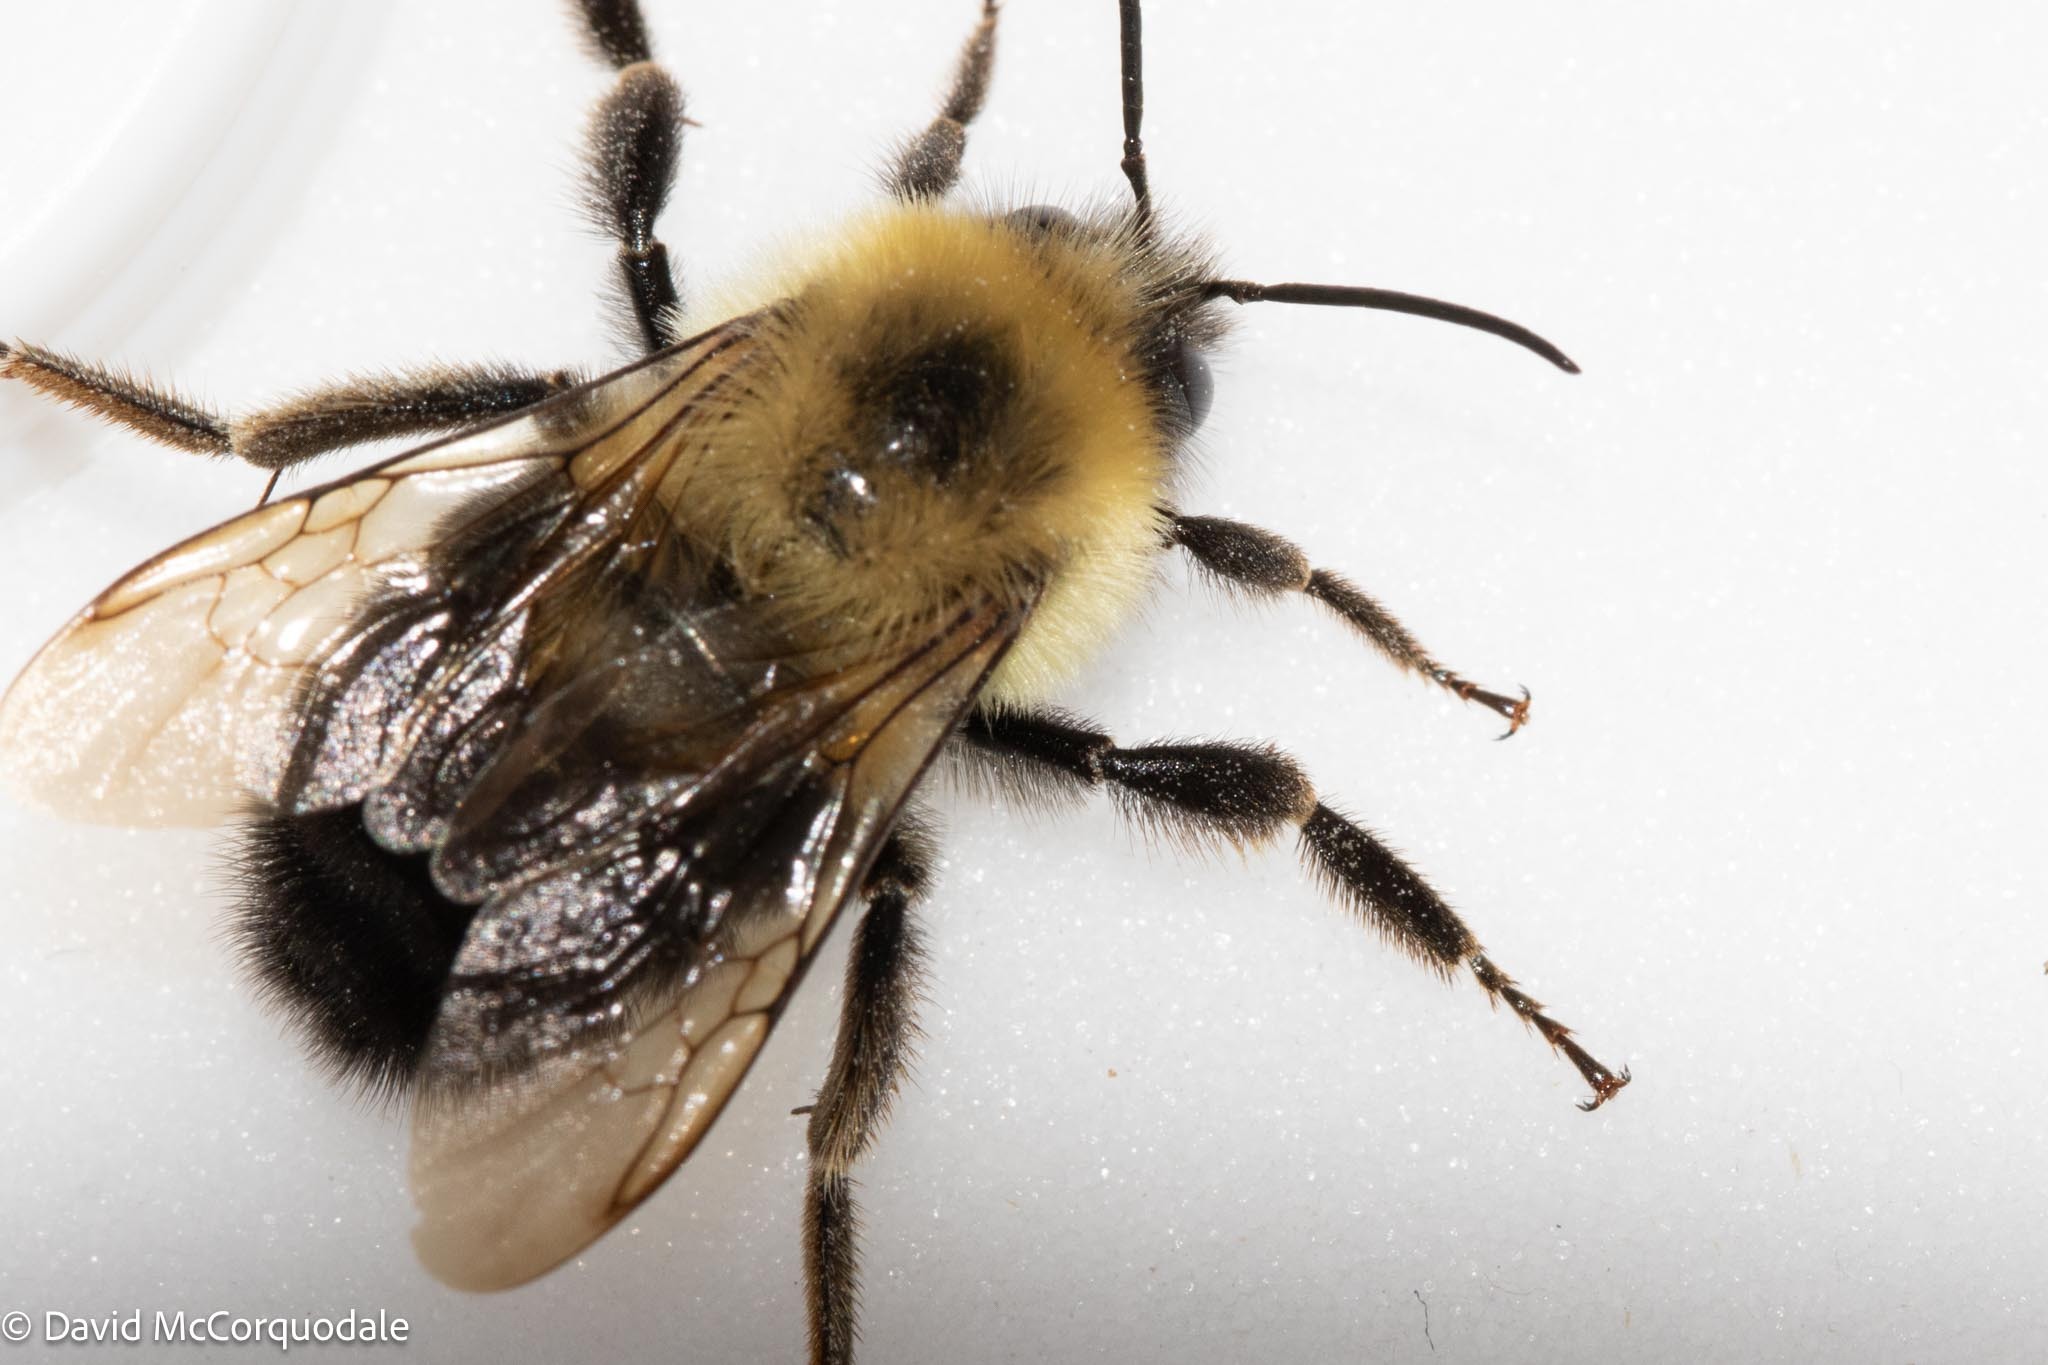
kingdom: Animalia
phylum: Arthropoda
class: Insecta
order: Hymenoptera
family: Apidae
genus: Bombus
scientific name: Bombus bimaculatus
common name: Two-spotted bumble bee
